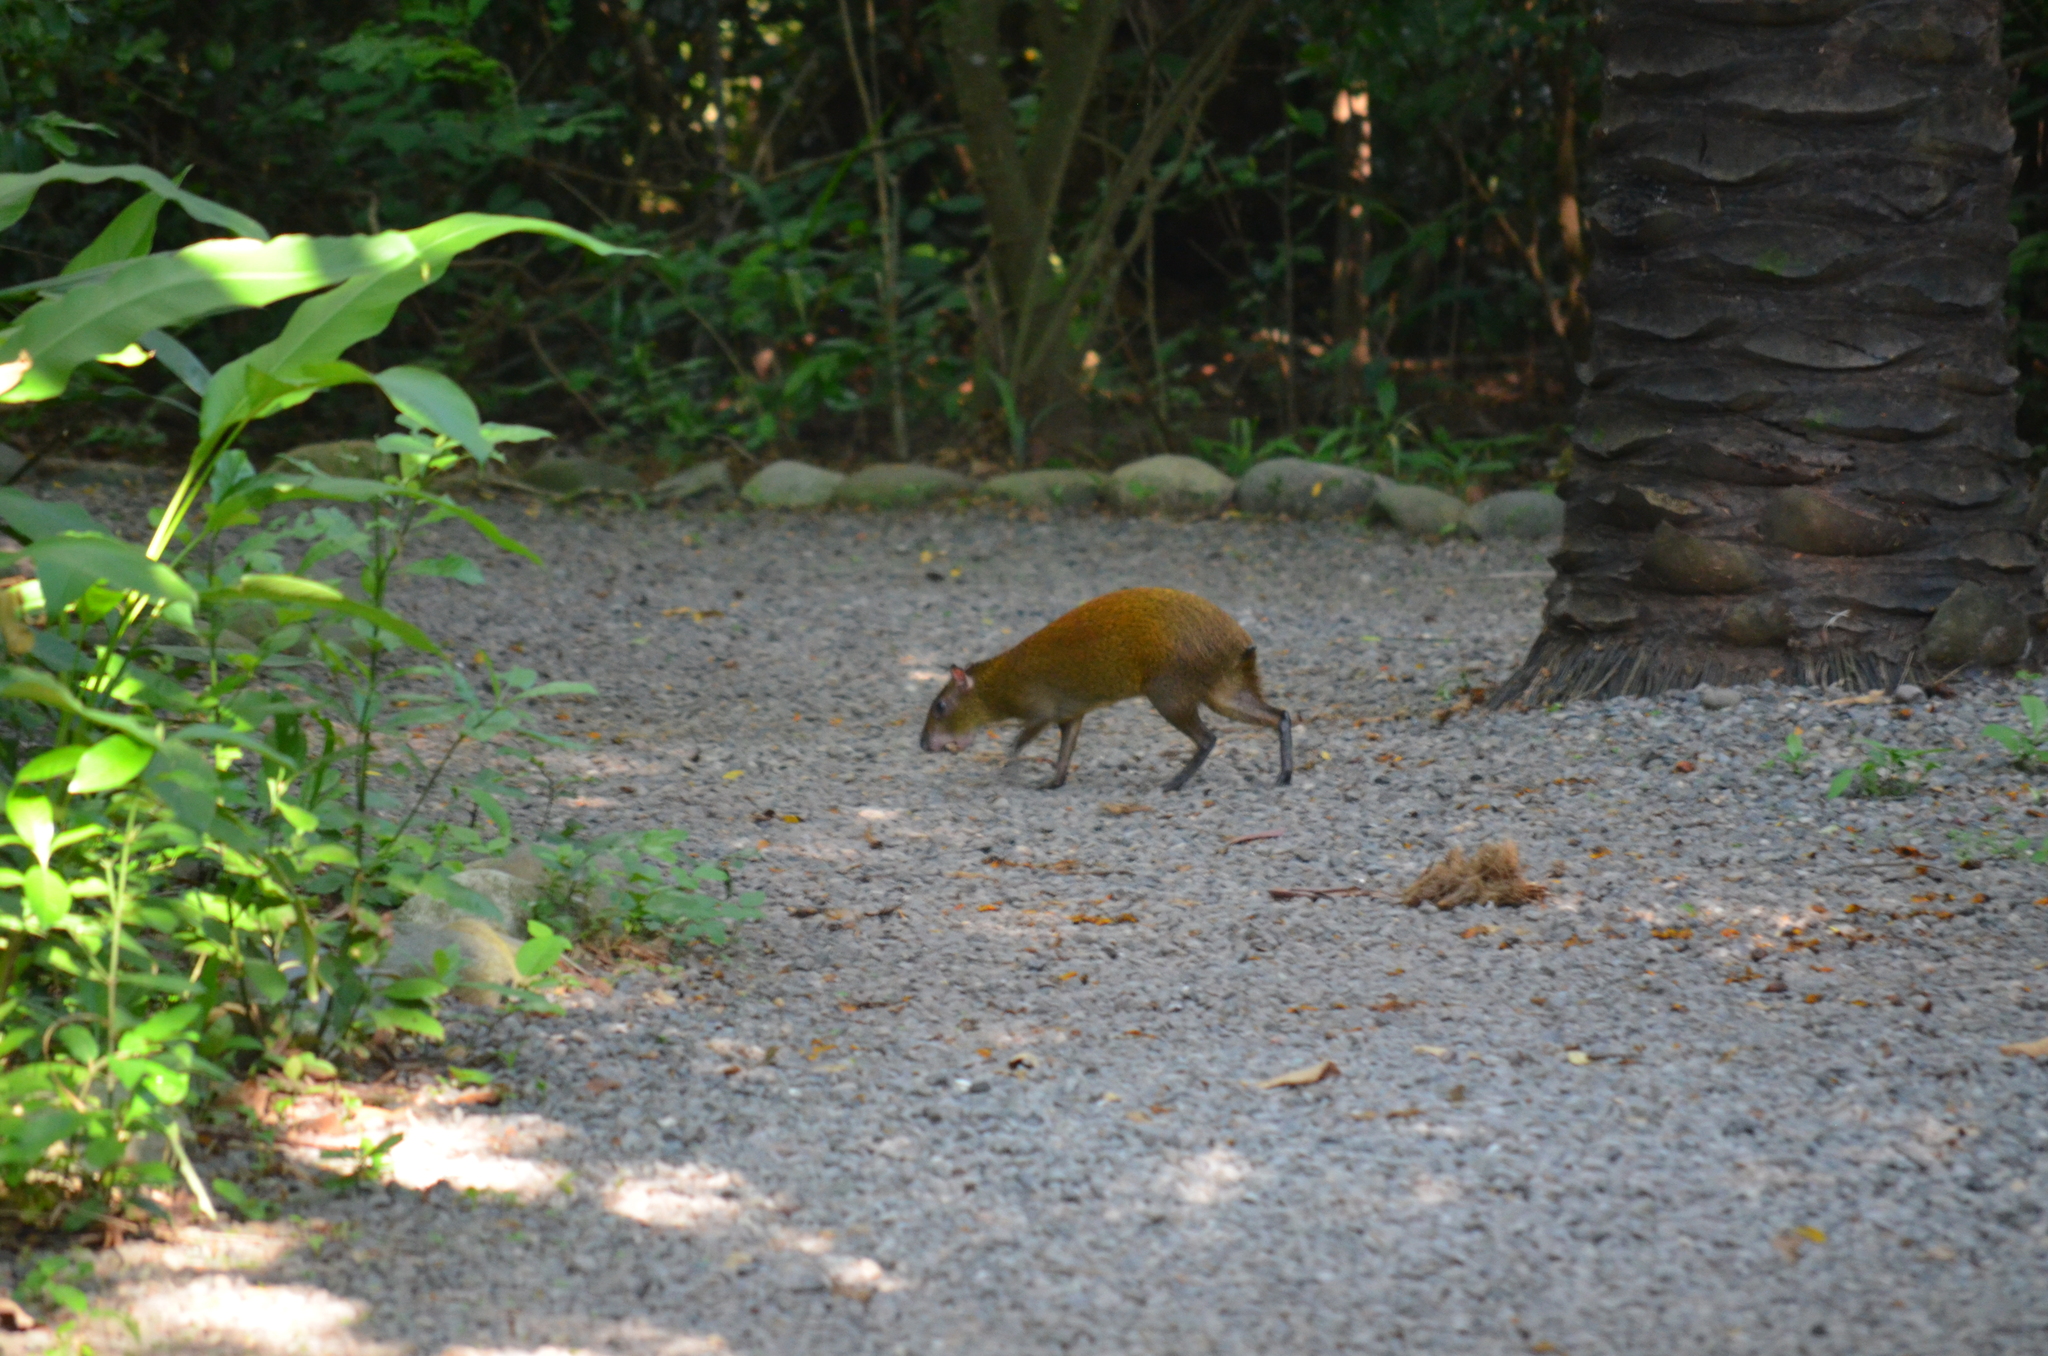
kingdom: Animalia
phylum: Chordata
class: Mammalia
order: Rodentia
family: Dasyproctidae
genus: Dasyprocta
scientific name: Dasyprocta punctata
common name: Central american agouti
